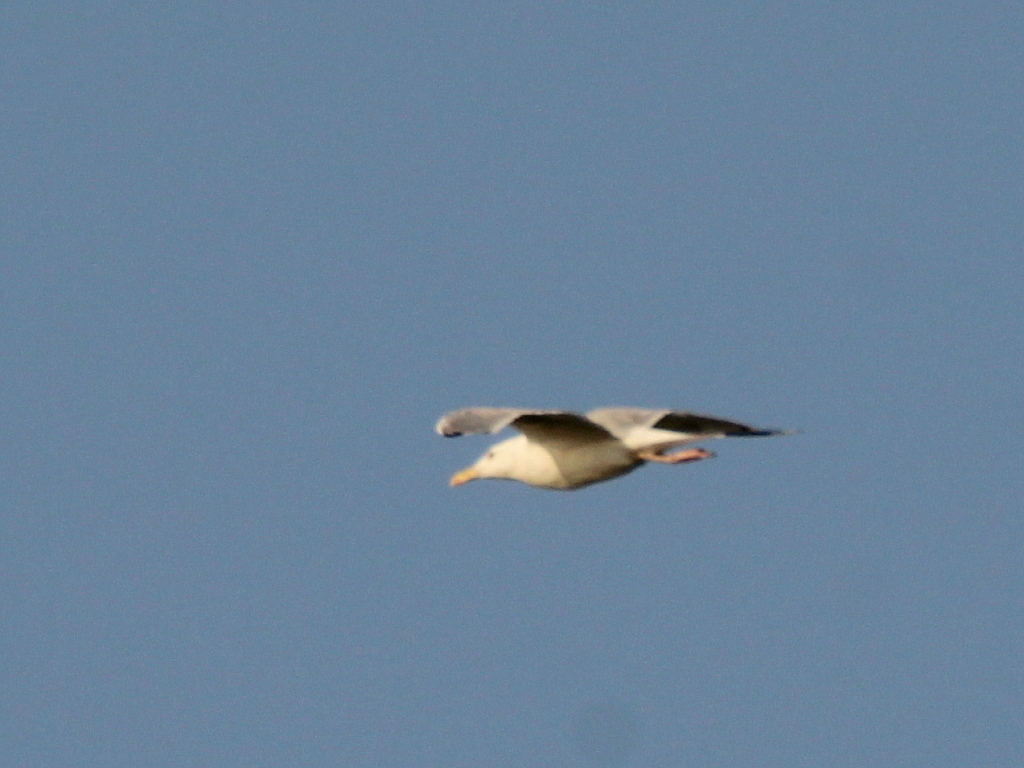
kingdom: Animalia
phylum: Chordata
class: Aves
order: Charadriiformes
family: Laridae
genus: Larus
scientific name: Larus cachinnans
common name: Caspian gull
